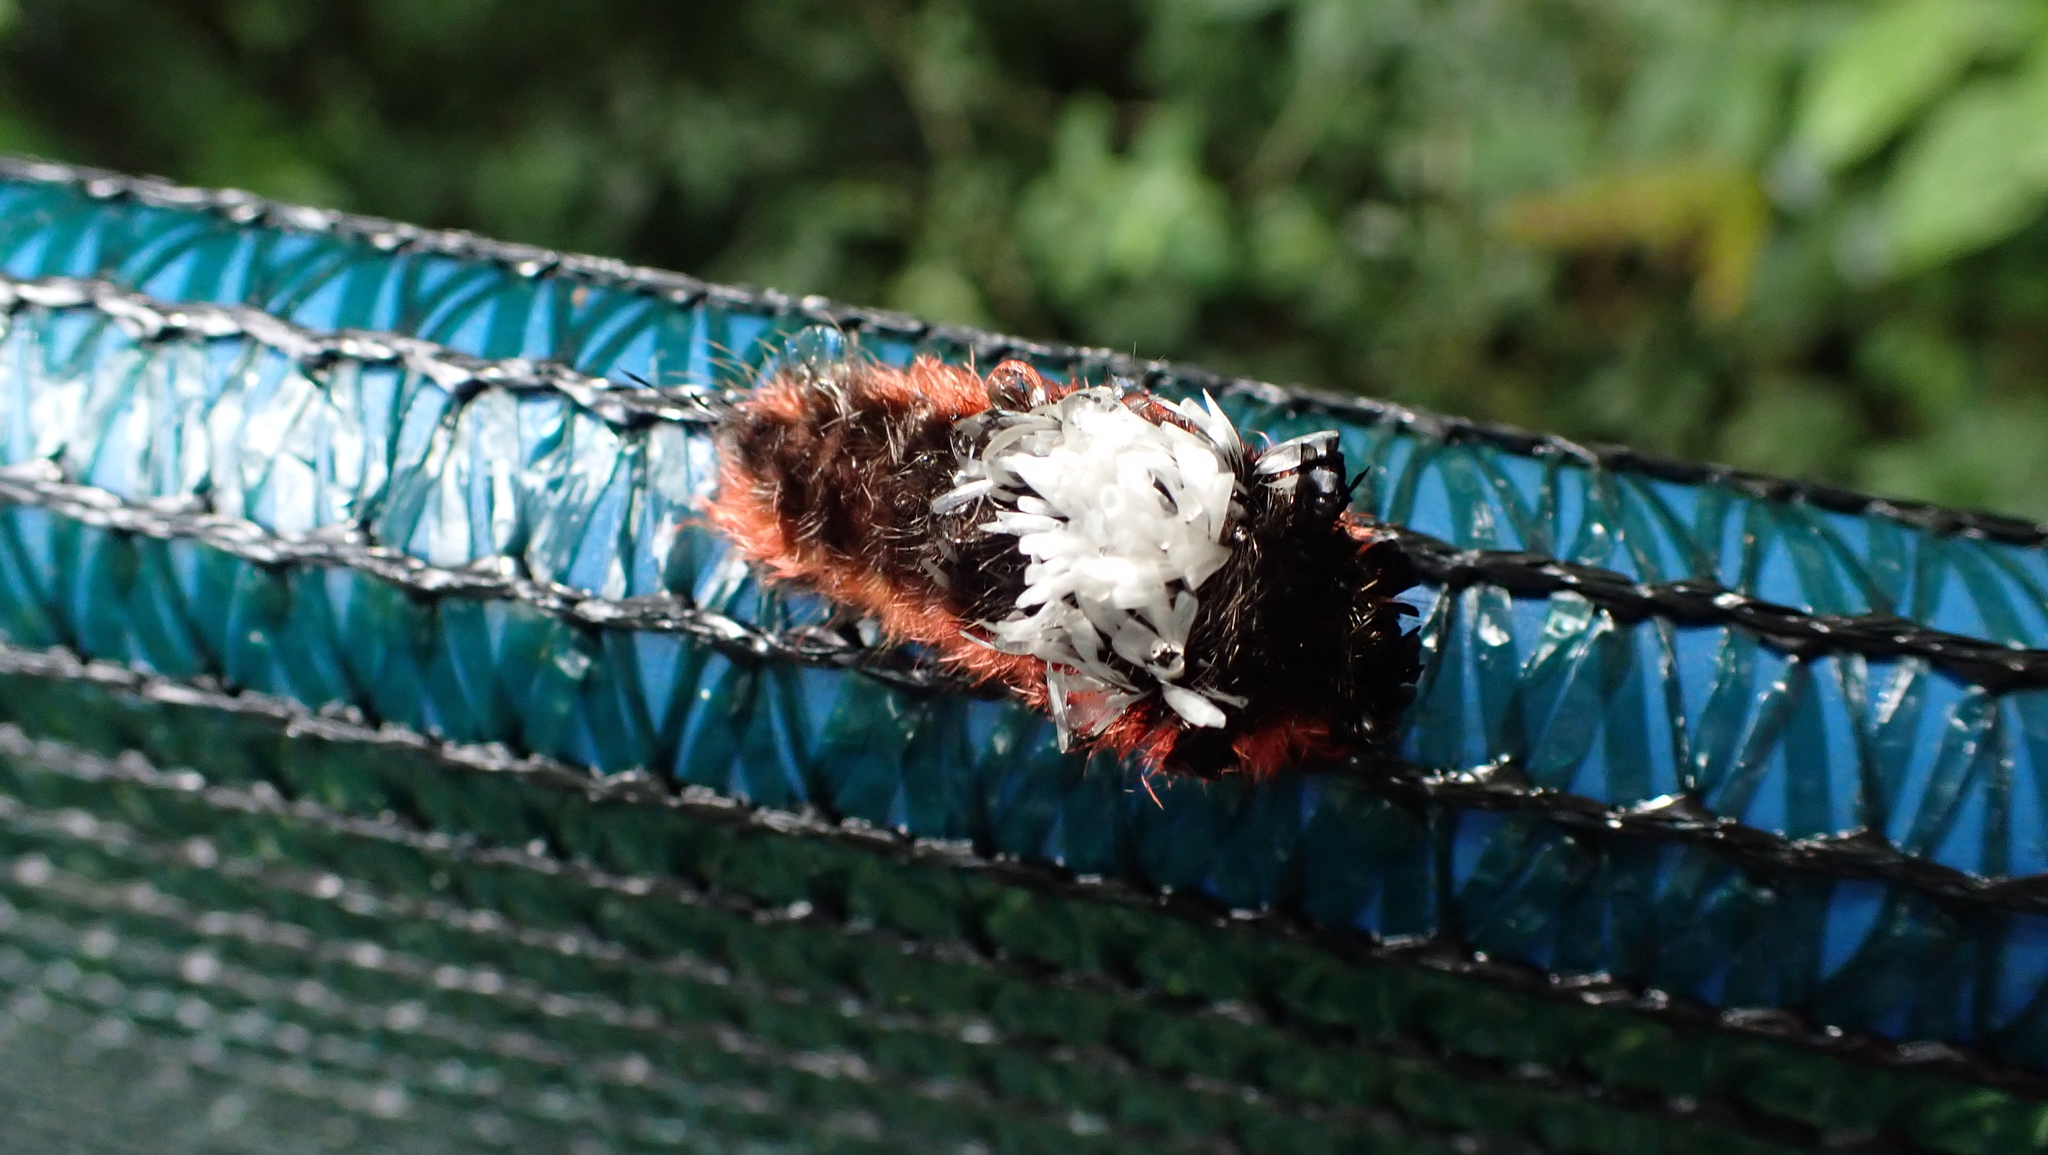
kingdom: Animalia
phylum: Arthropoda
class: Insecta
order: Lepidoptera
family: Bombycidae
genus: Prothysana
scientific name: Prothysana
